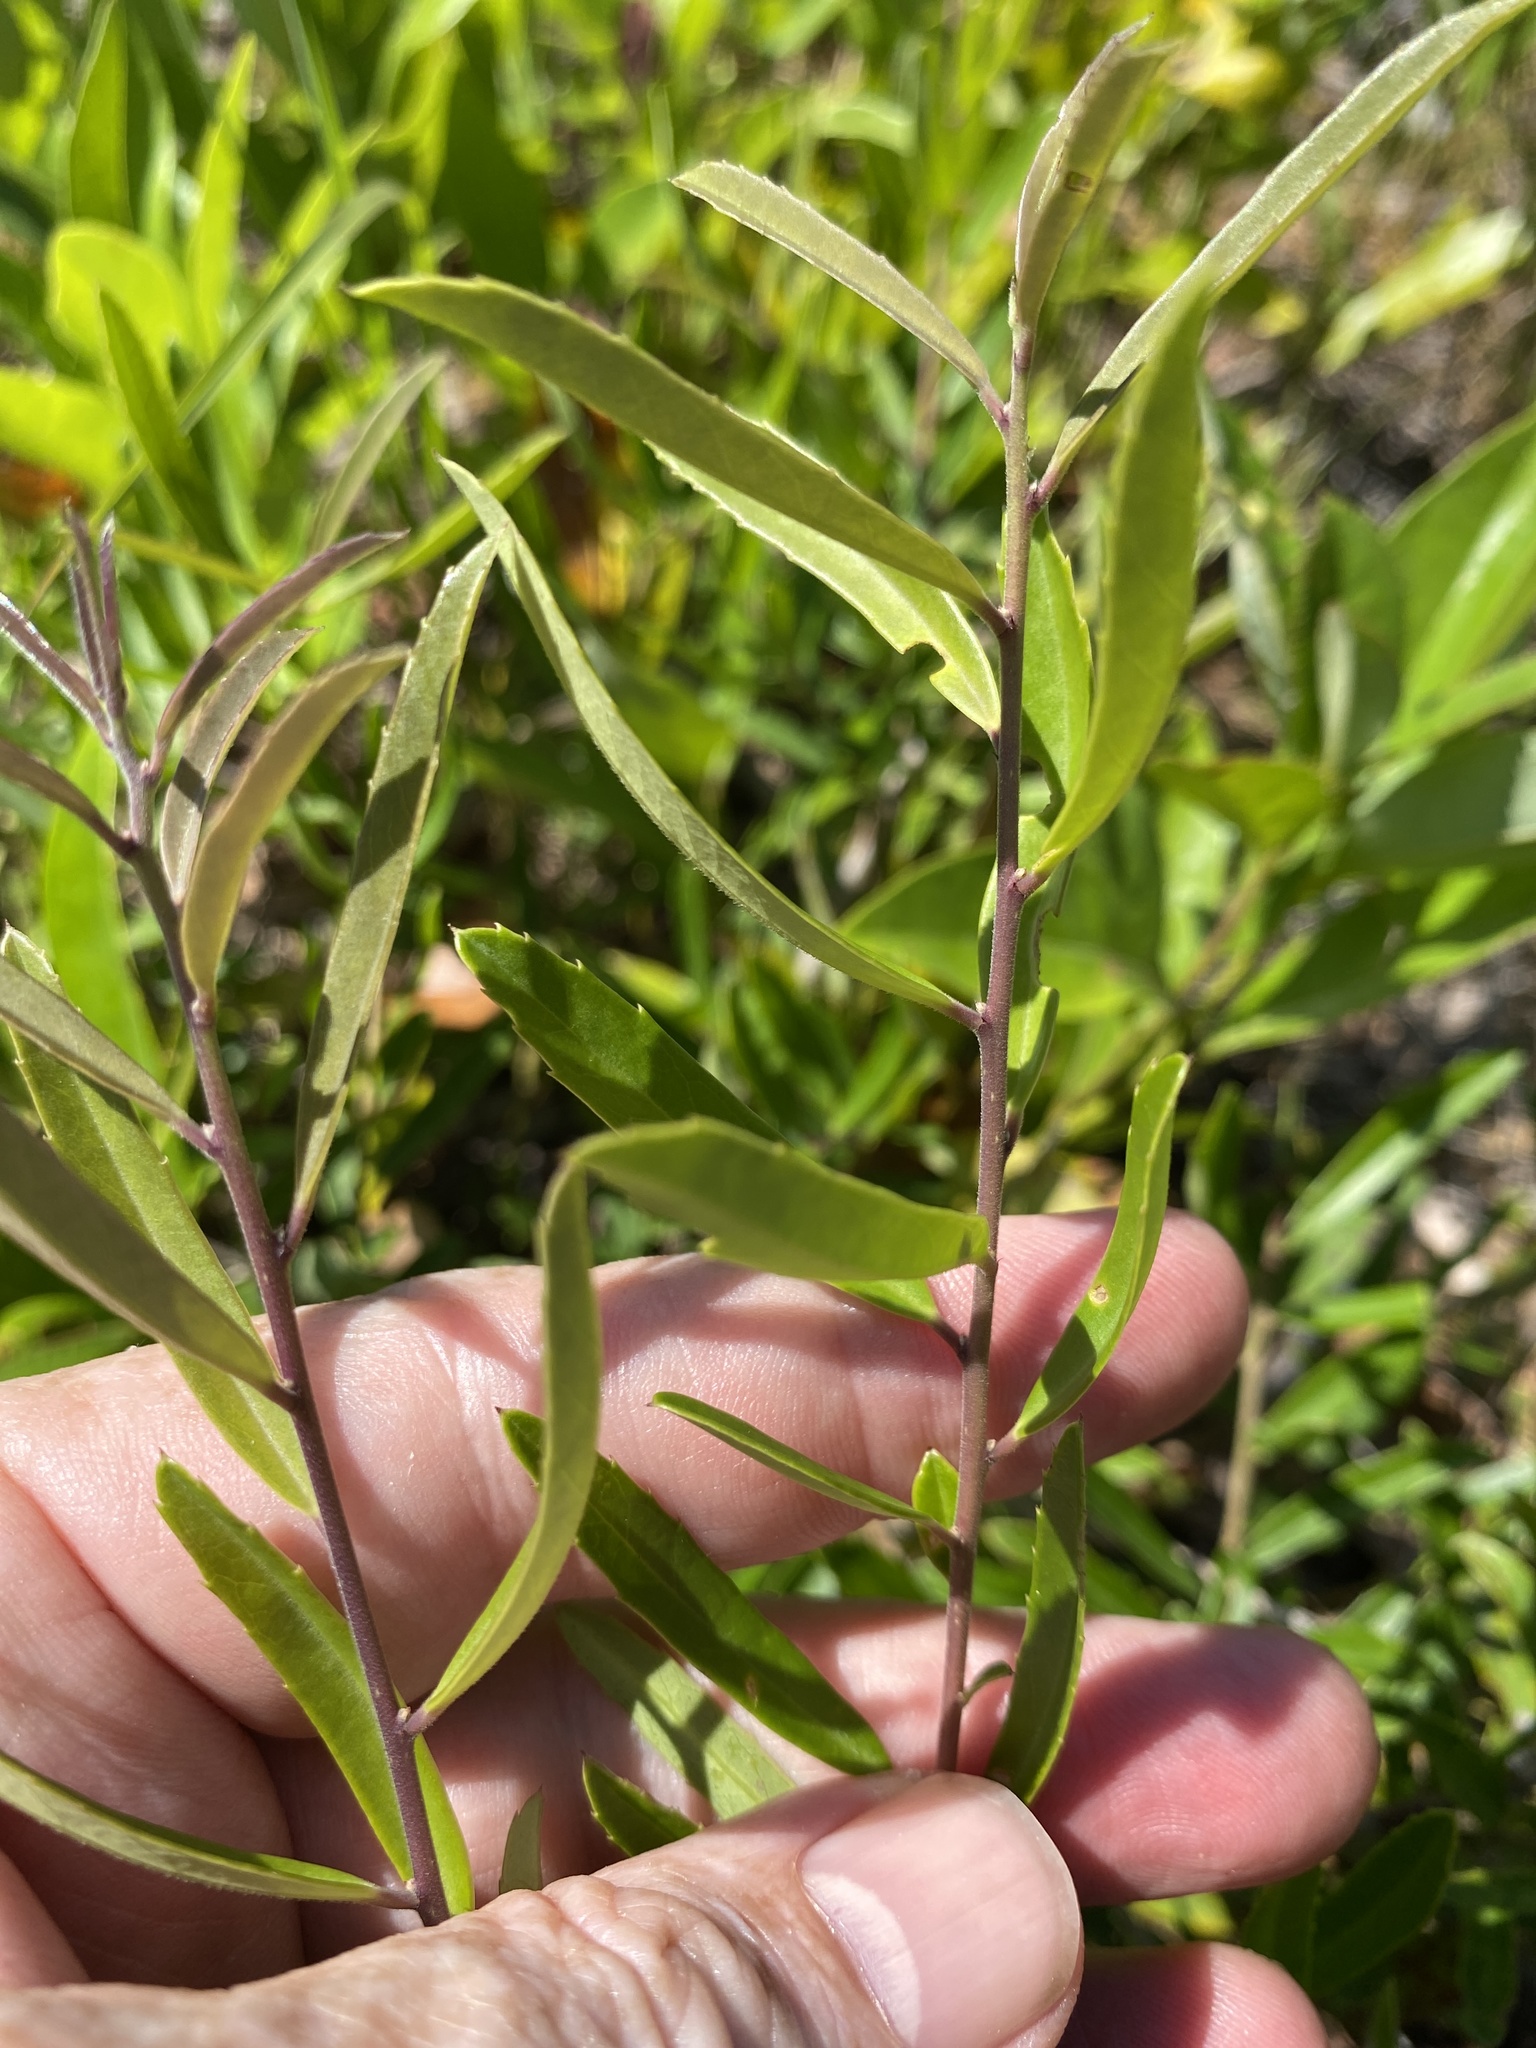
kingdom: Plantae
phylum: Tracheophyta
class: Magnoliopsida
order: Aquifoliales
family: Aquifoliaceae
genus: Ilex
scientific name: Ilex myrtifolia
